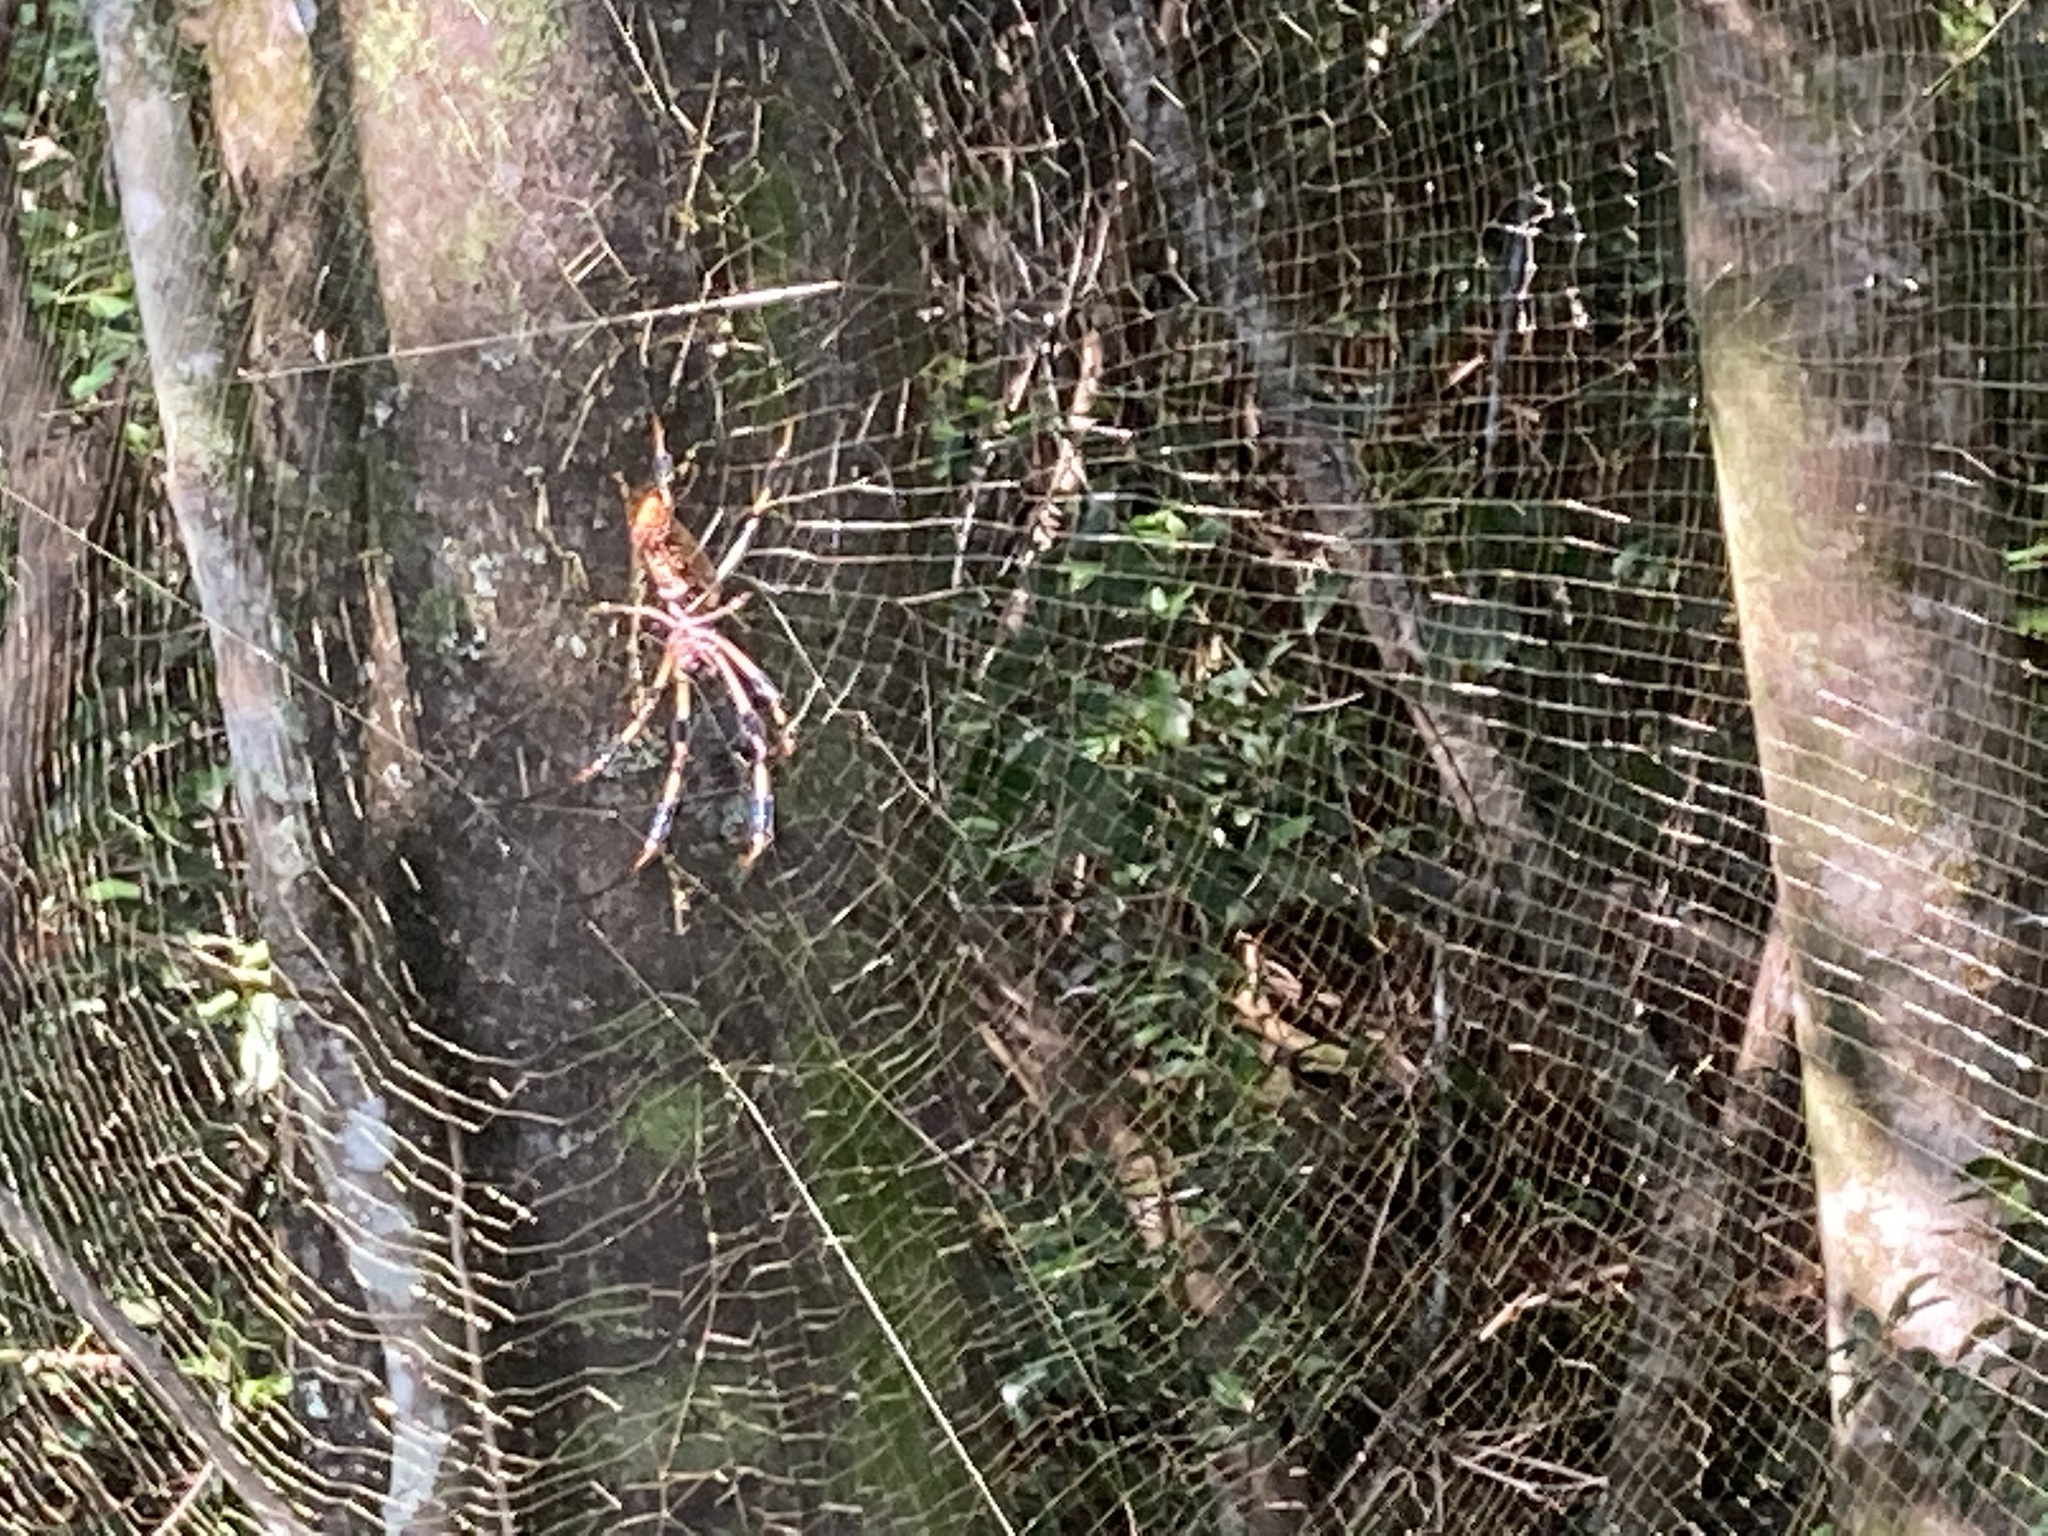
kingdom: Animalia
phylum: Arthropoda
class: Arachnida
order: Araneae
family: Araneidae
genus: Trichonephila
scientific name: Trichonephila clavipes
